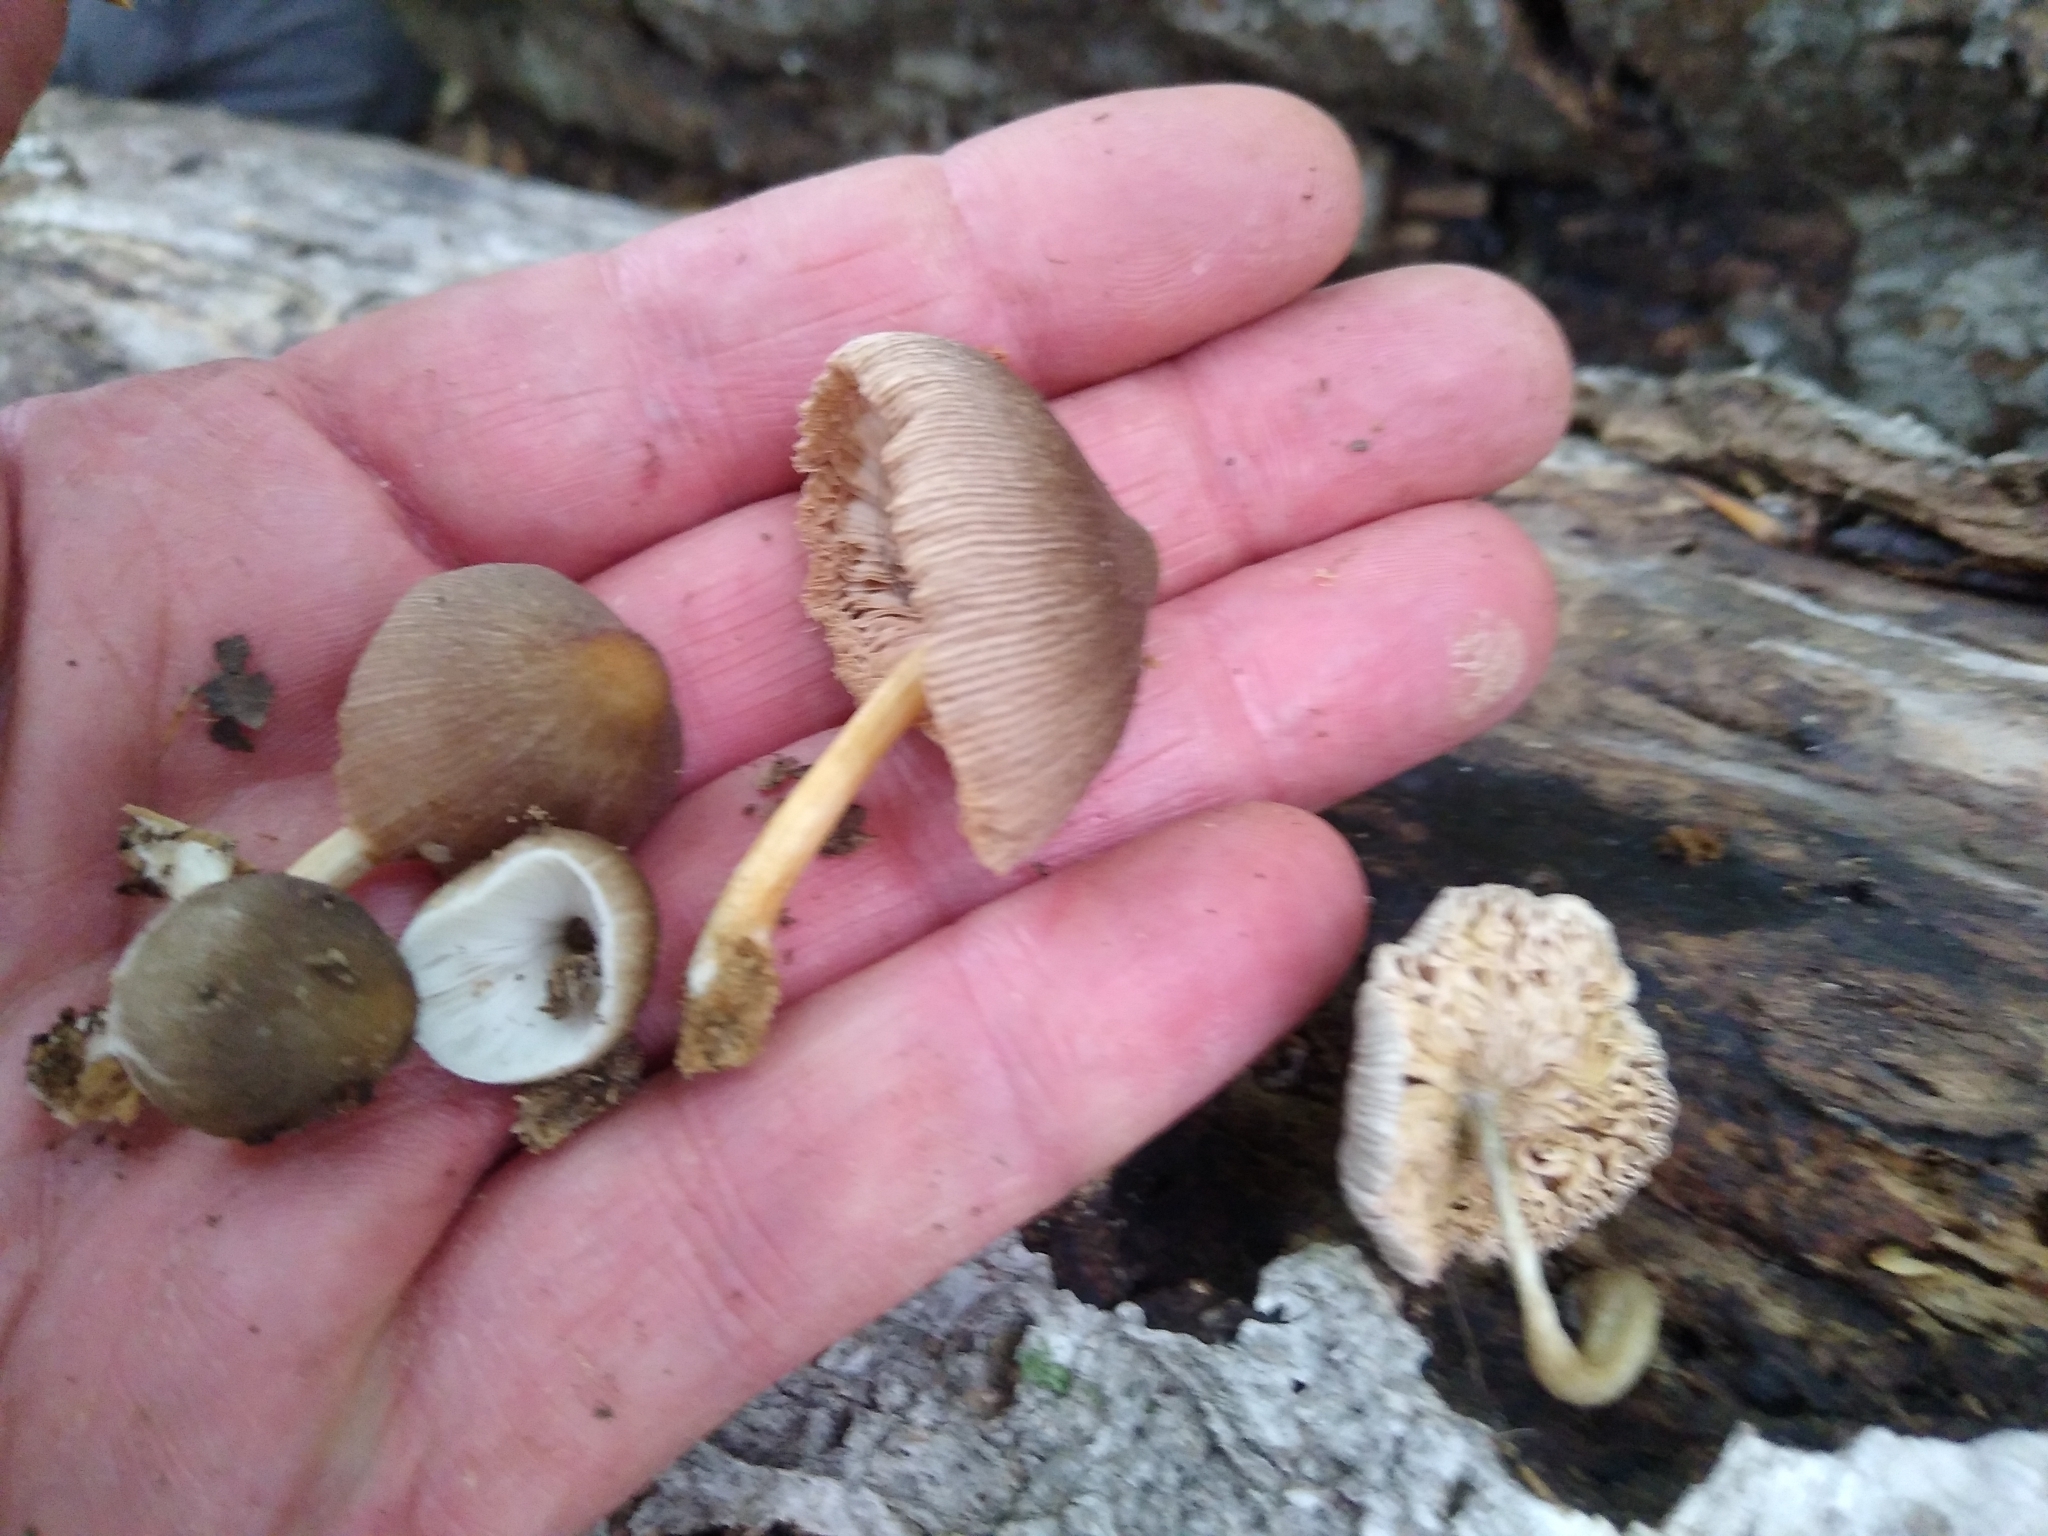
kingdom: Fungi
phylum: Basidiomycota
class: Agaricomycetes
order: Agaricales
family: Pluteaceae
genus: Pluteus
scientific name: Pluteus longistriatus
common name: Pleated pluteus
